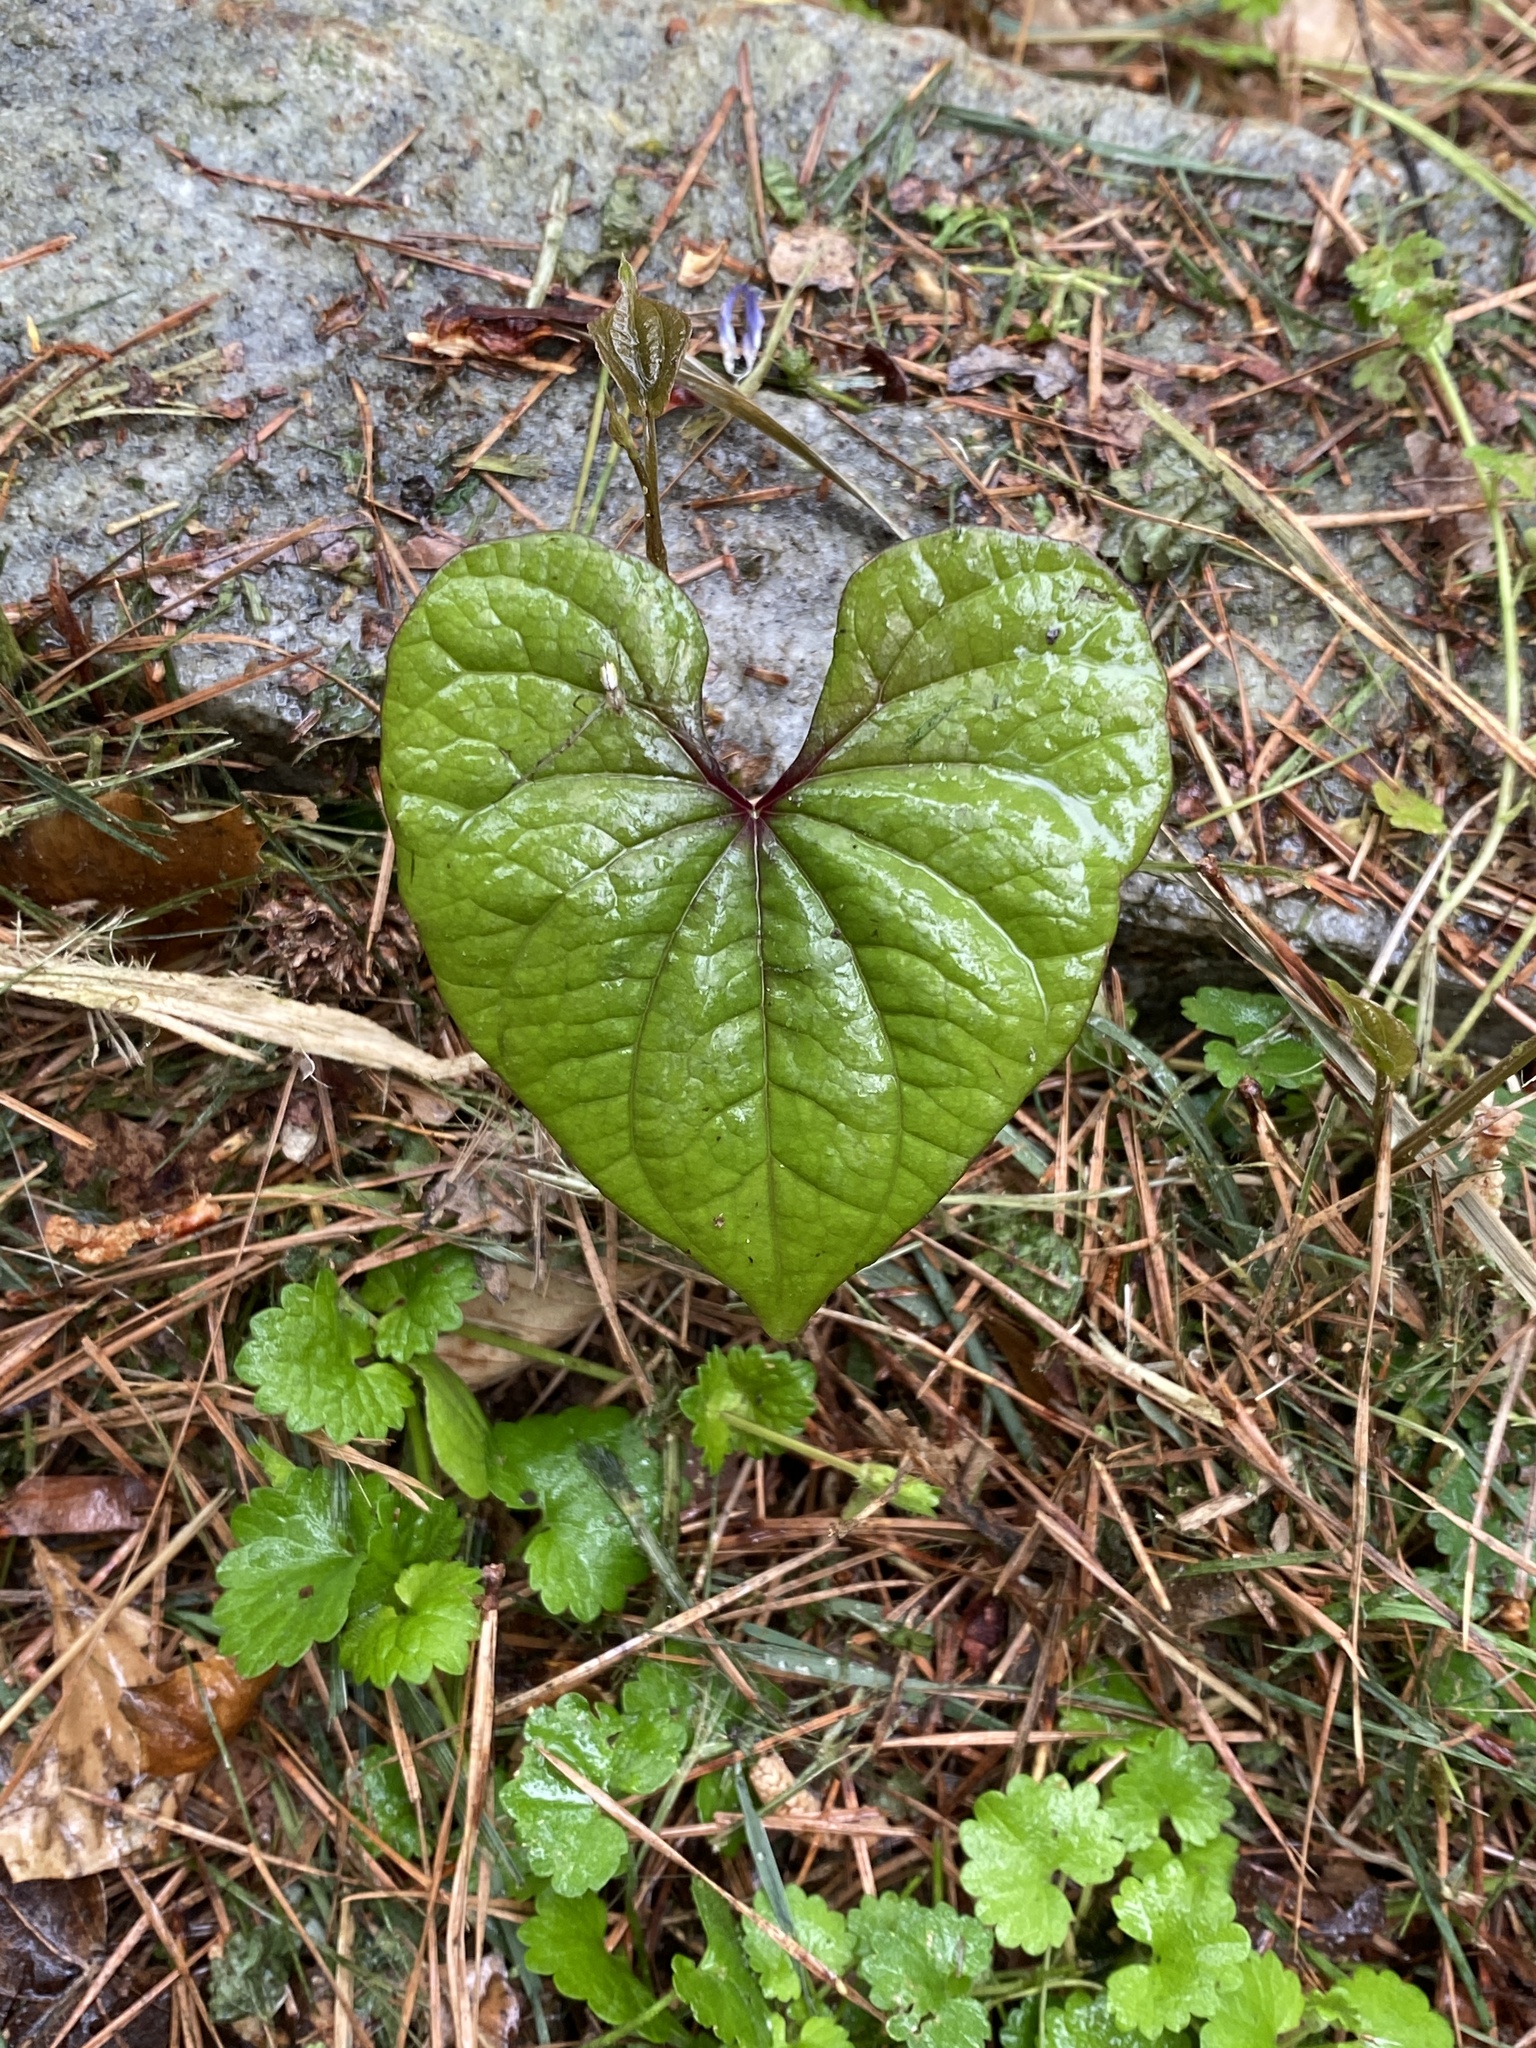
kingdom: Plantae
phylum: Tracheophyta
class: Liliopsida
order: Dioscoreales
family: Dioscoreaceae
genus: Dioscorea
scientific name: Dioscorea polystachya
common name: Chinese yam
